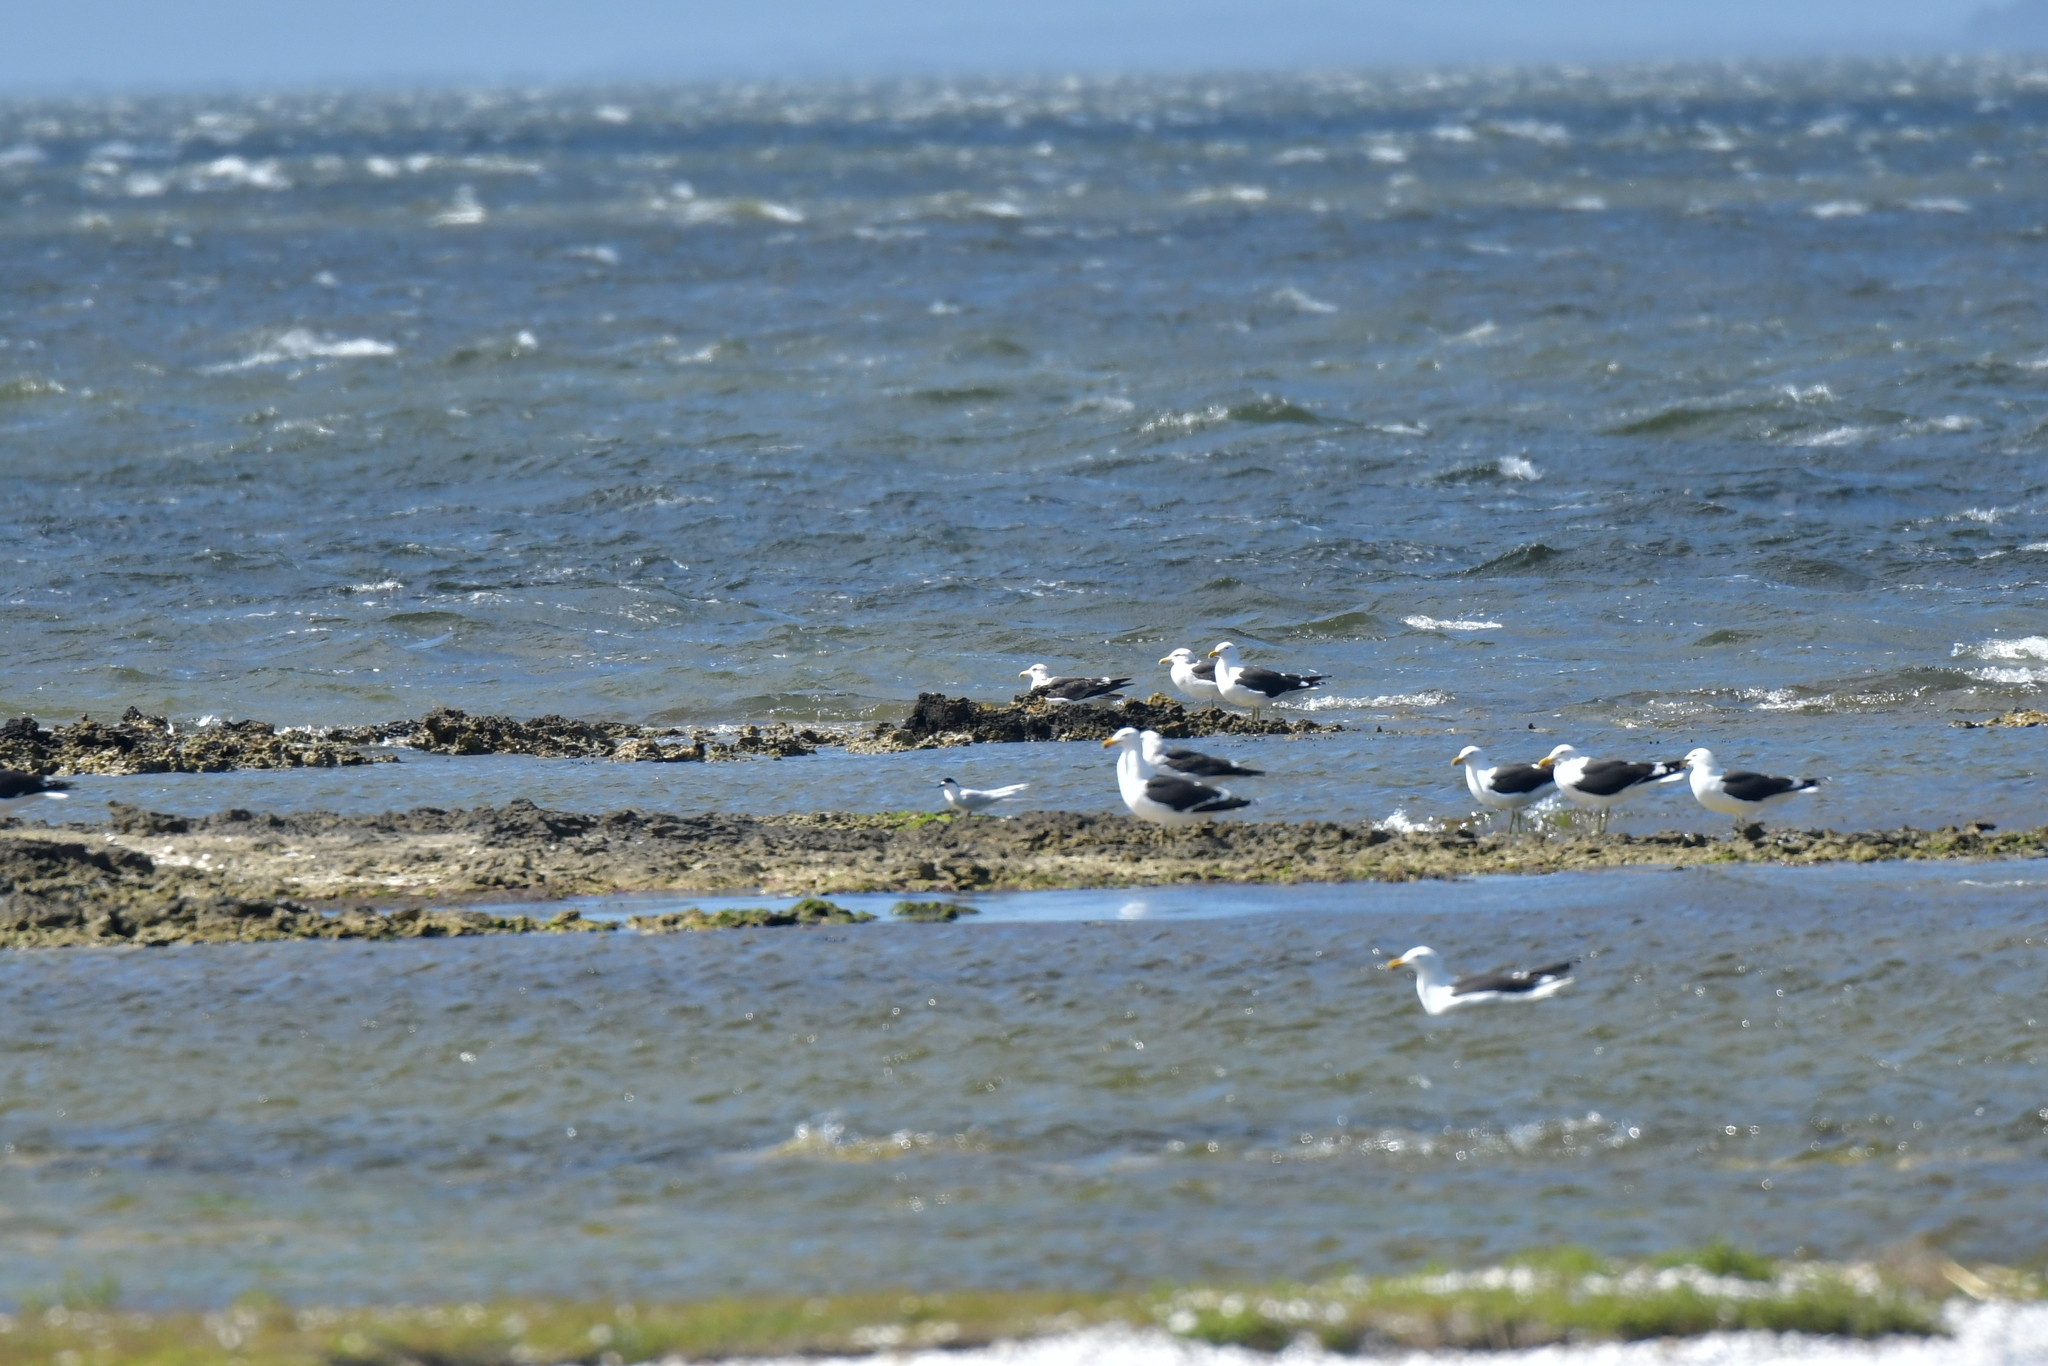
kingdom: Animalia
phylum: Chordata
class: Aves
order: Charadriiformes
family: Laridae
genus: Sterna
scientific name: Sterna striata
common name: White-fronted tern
